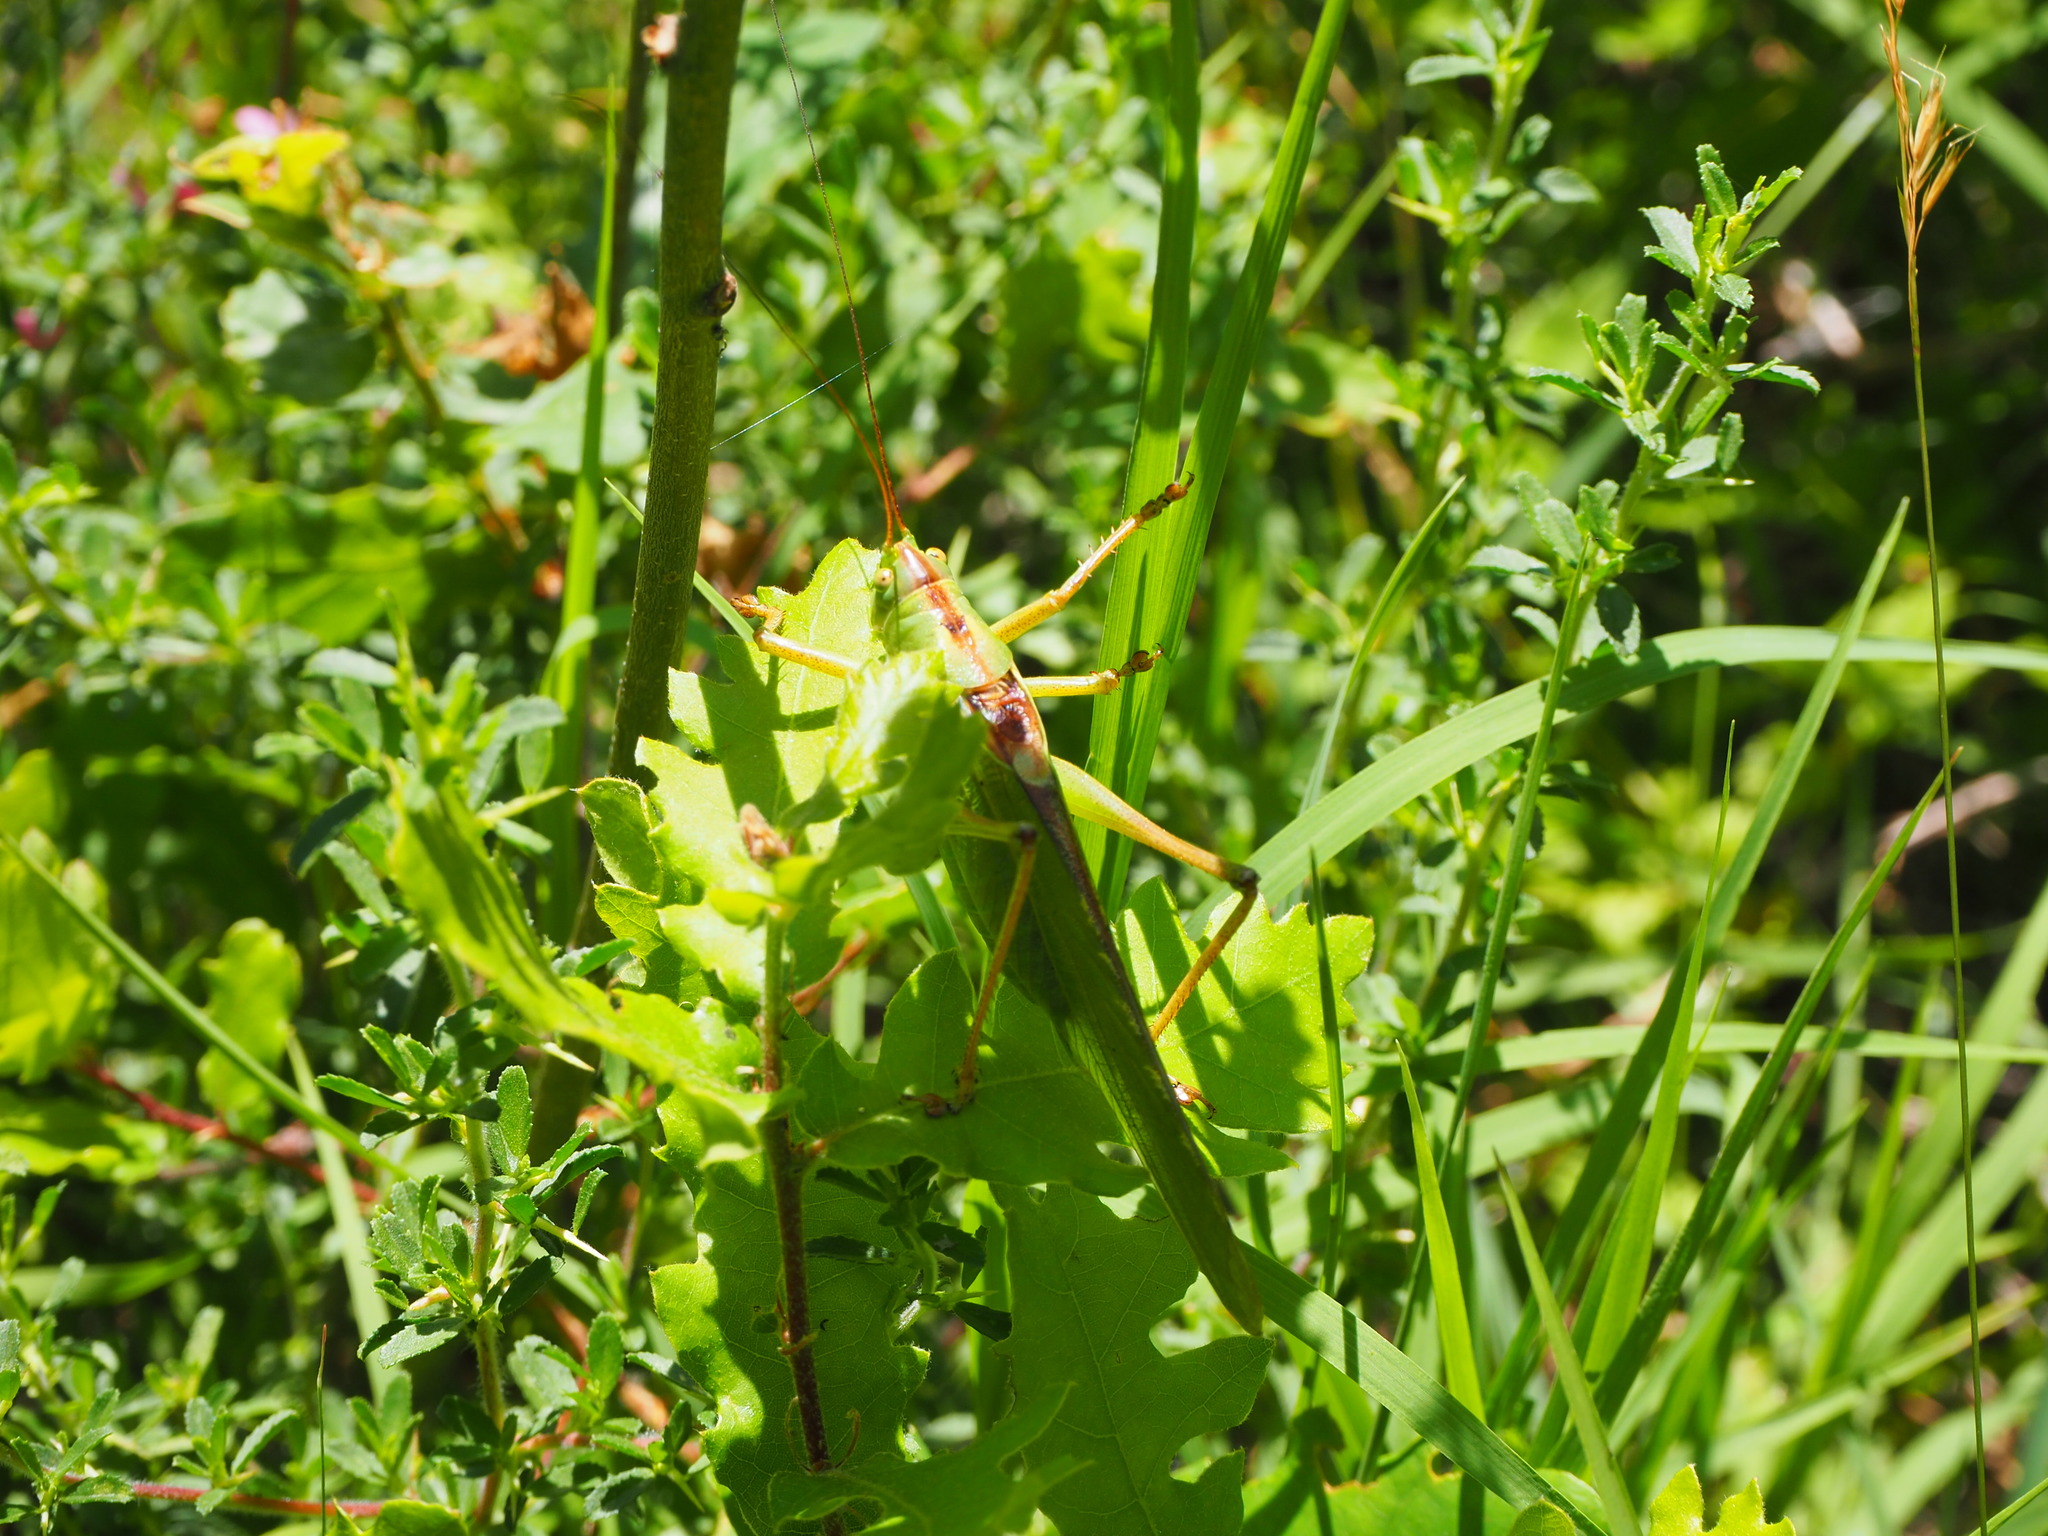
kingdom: Animalia
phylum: Arthropoda
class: Insecta
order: Orthoptera
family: Tettigoniidae
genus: Tettigonia
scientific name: Tettigonia viridissima
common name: Great green bush-cricket
